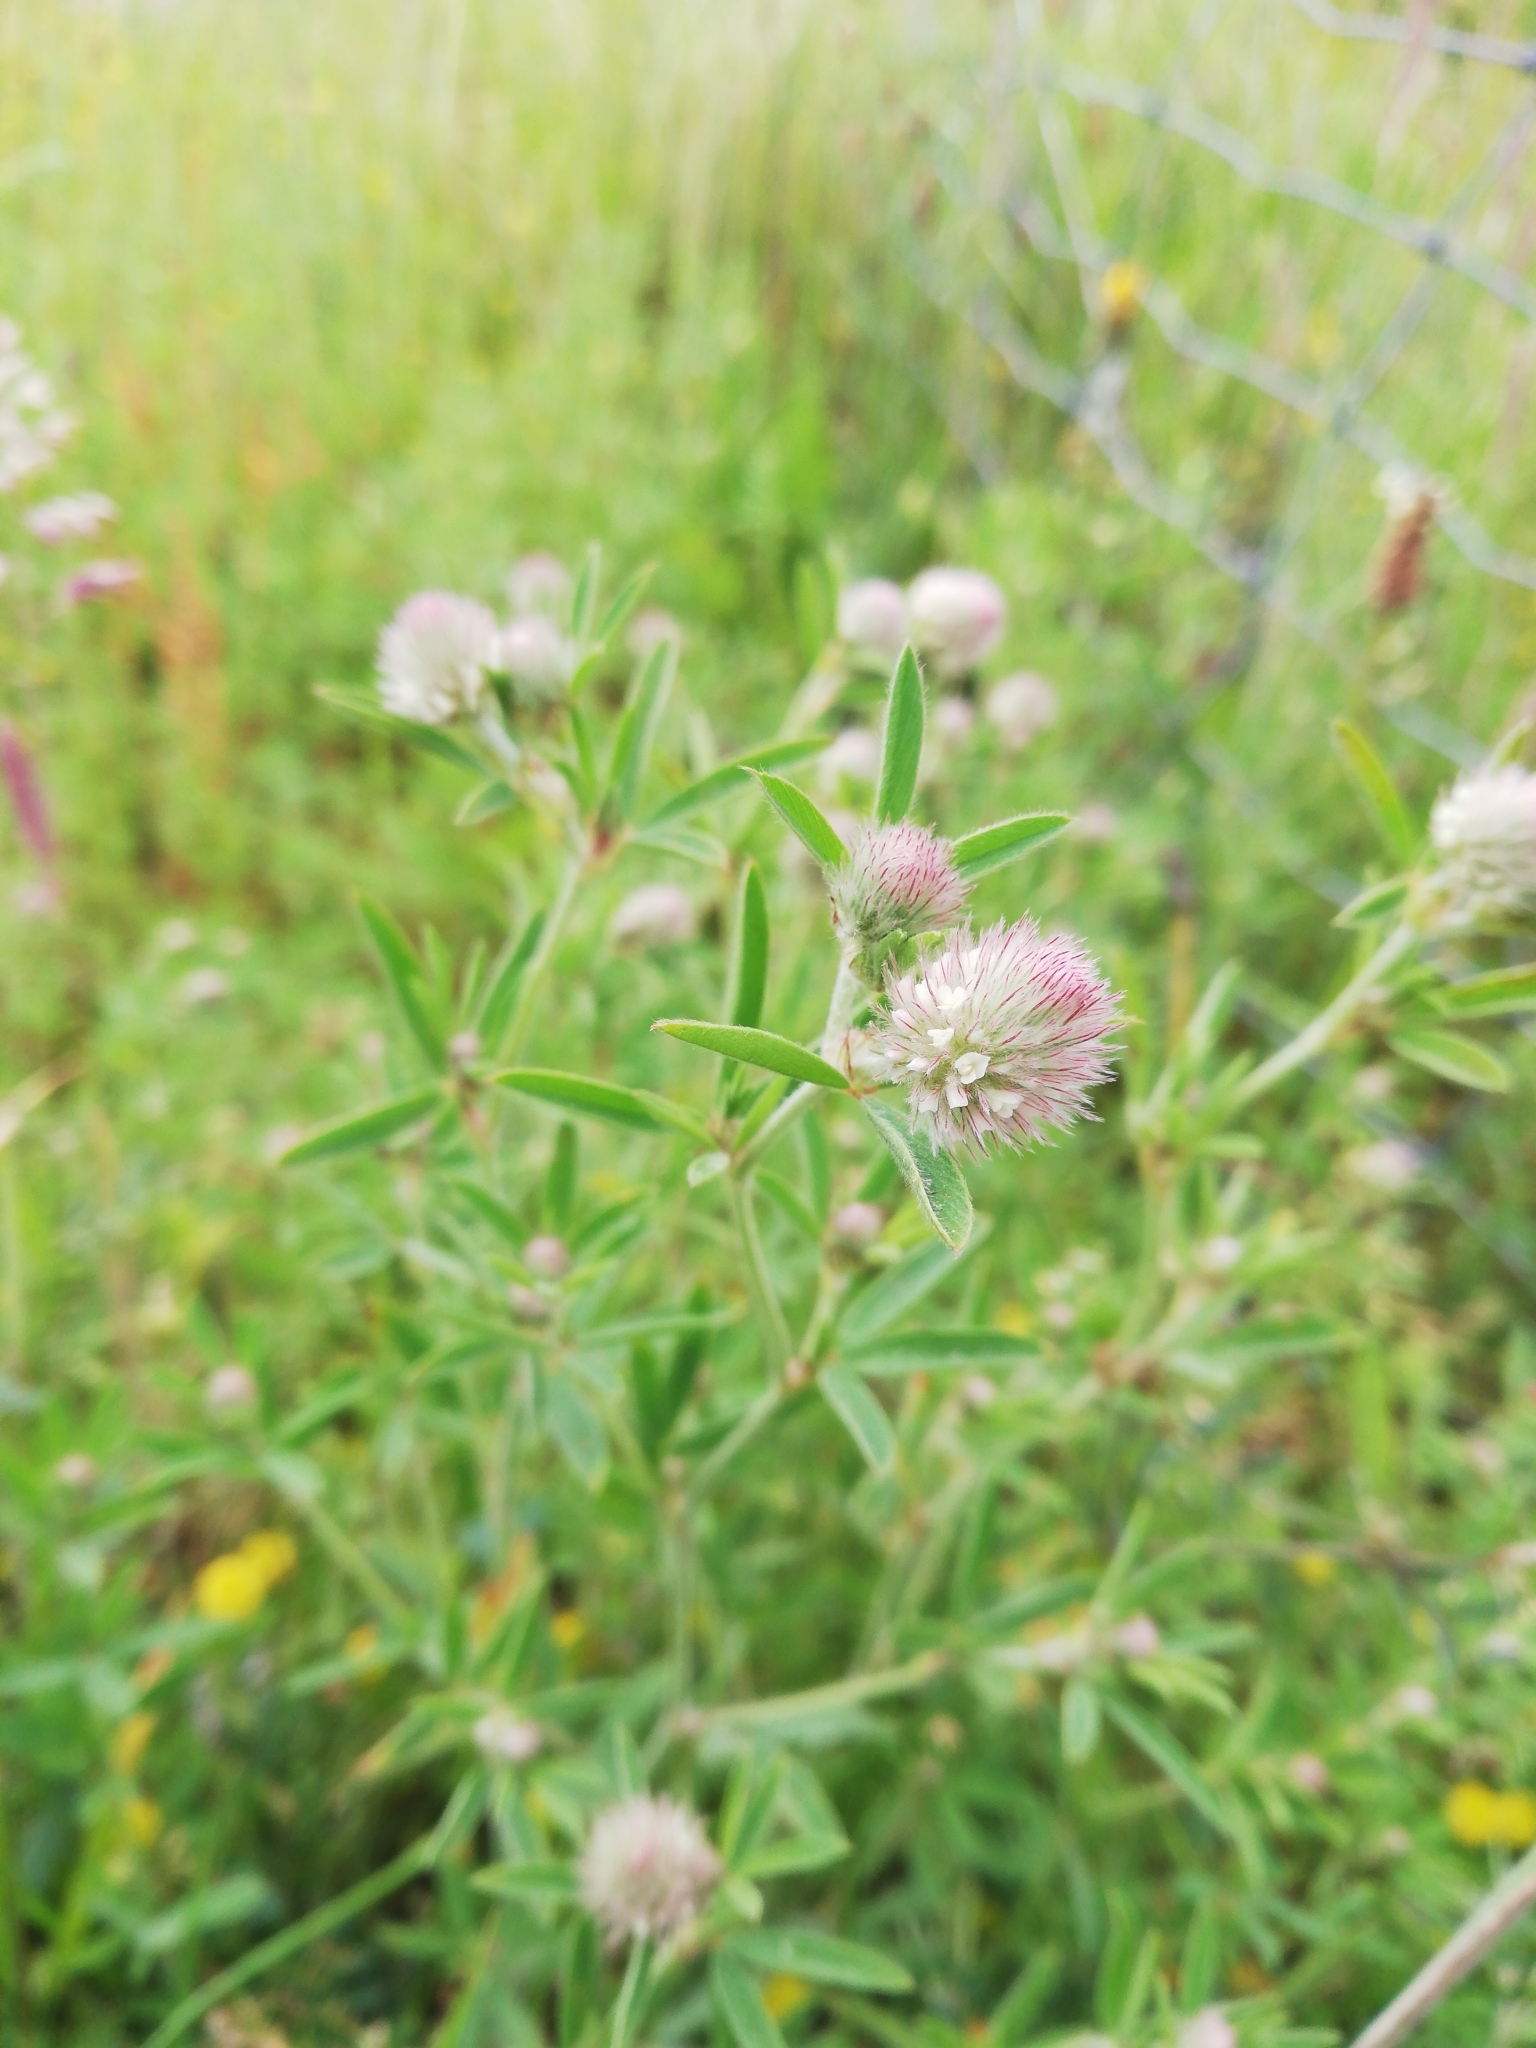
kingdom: Plantae
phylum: Tracheophyta
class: Magnoliopsida
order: Fabales
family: Fabaceae
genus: Trifolium
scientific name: Trifolium arvense
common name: Hare's-foot clover
